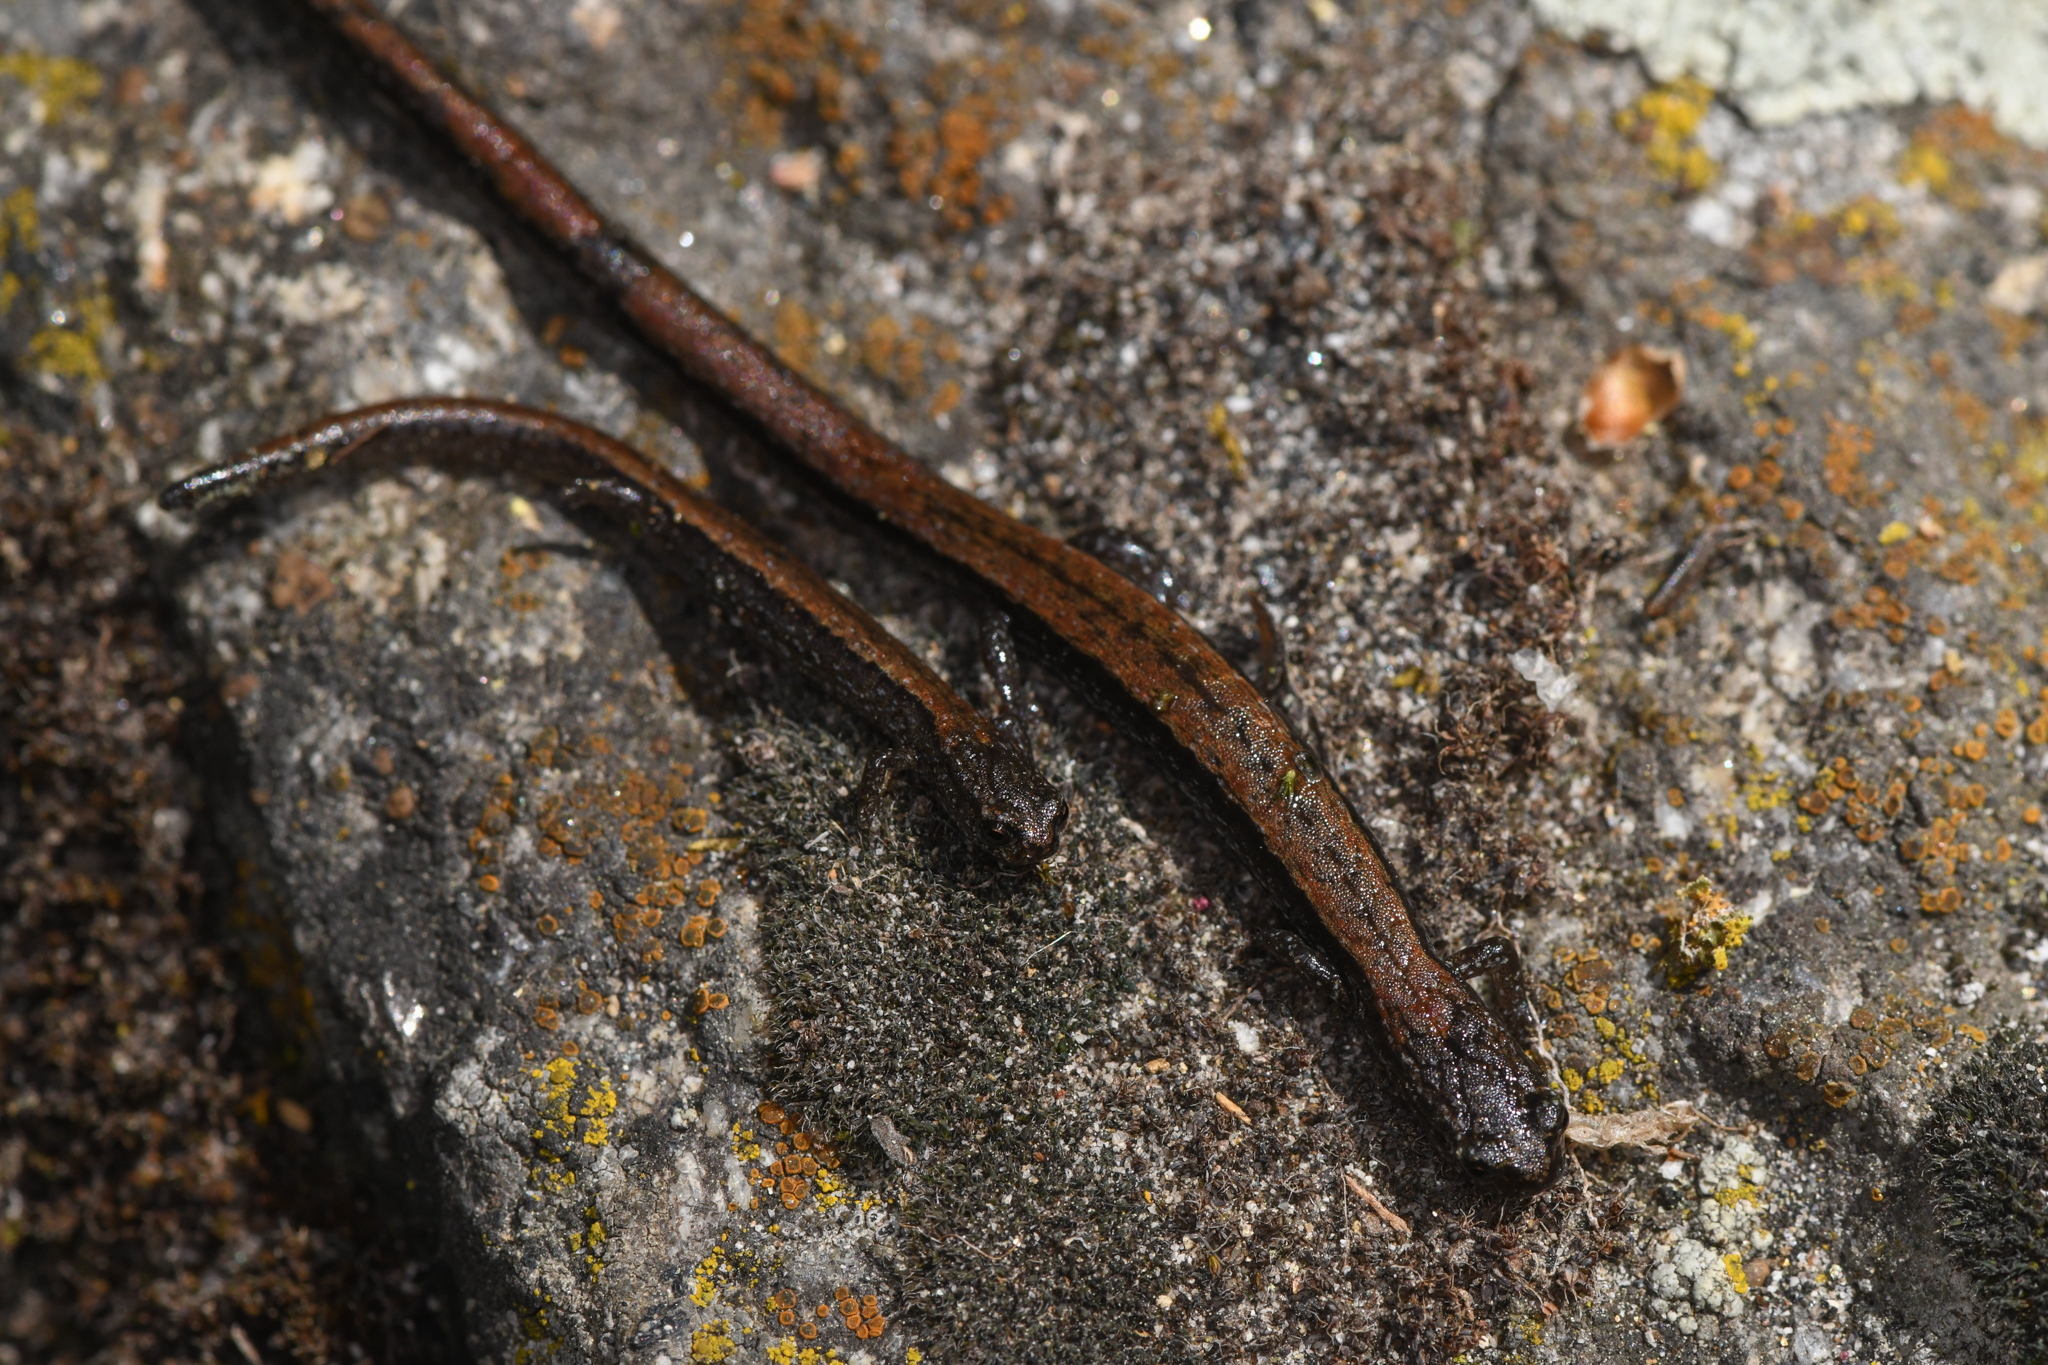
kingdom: Animalia
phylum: Chordata
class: Amphibia
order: Caudata
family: Plethodontidae
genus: Batrachoseps
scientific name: Batrachoseps relictus
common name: Relictual slender salamander
